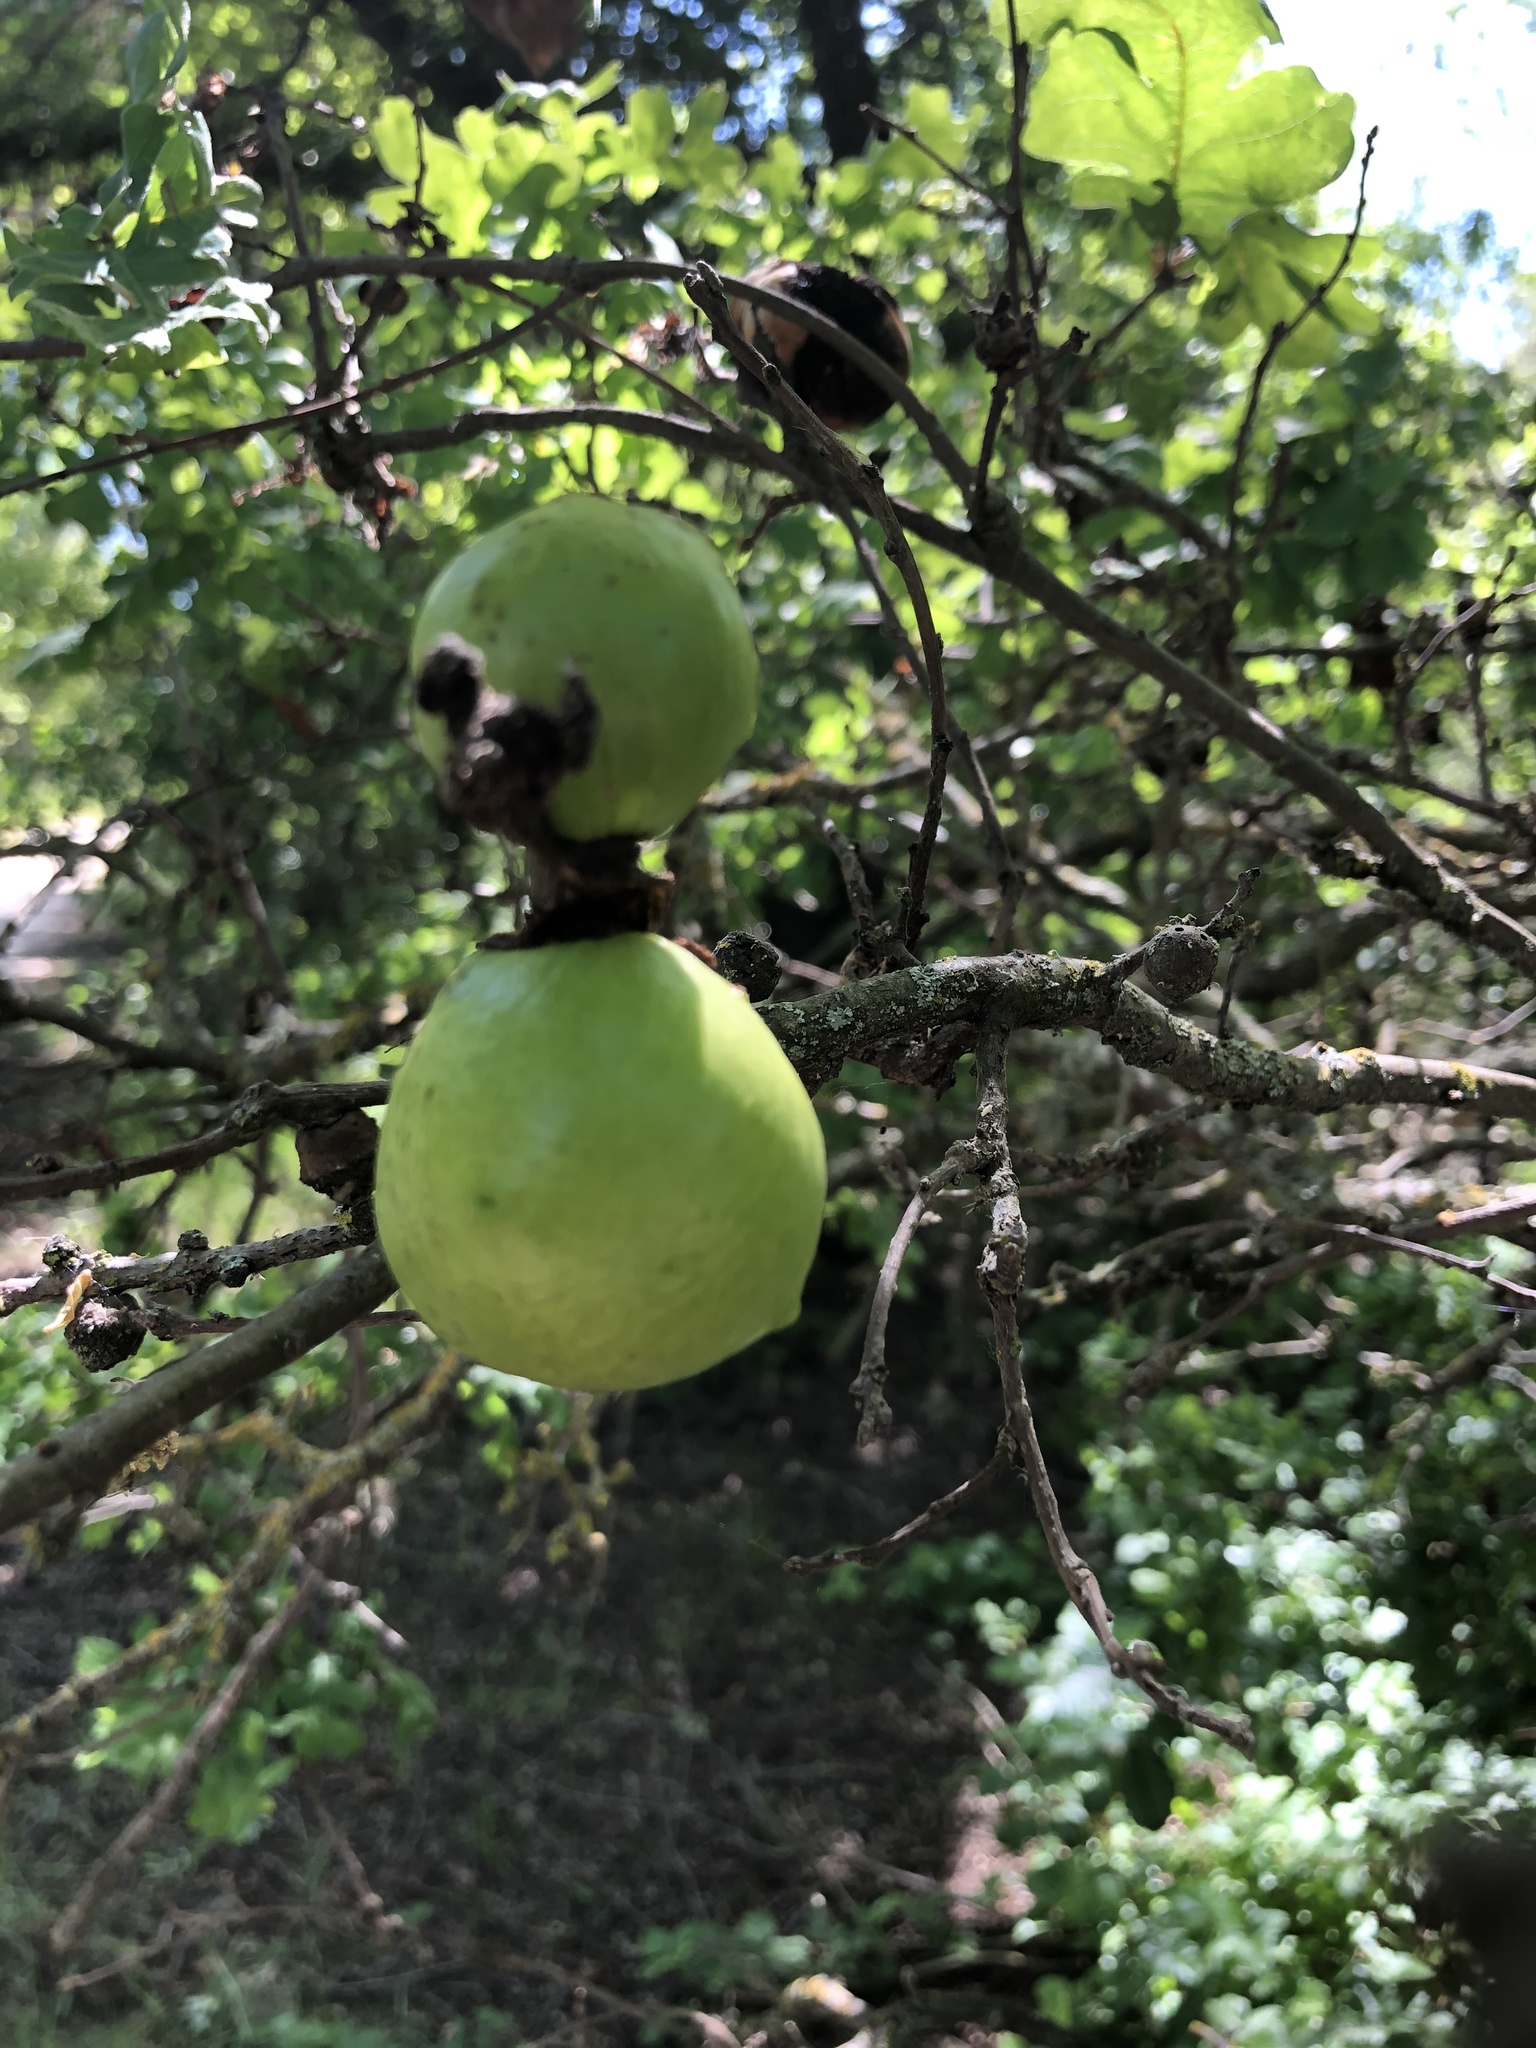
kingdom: Animalia
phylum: Arthropoda
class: Insecta
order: Hymenoptera
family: Cynipidae
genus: Andricus
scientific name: Andricus quercuscalifornicus
